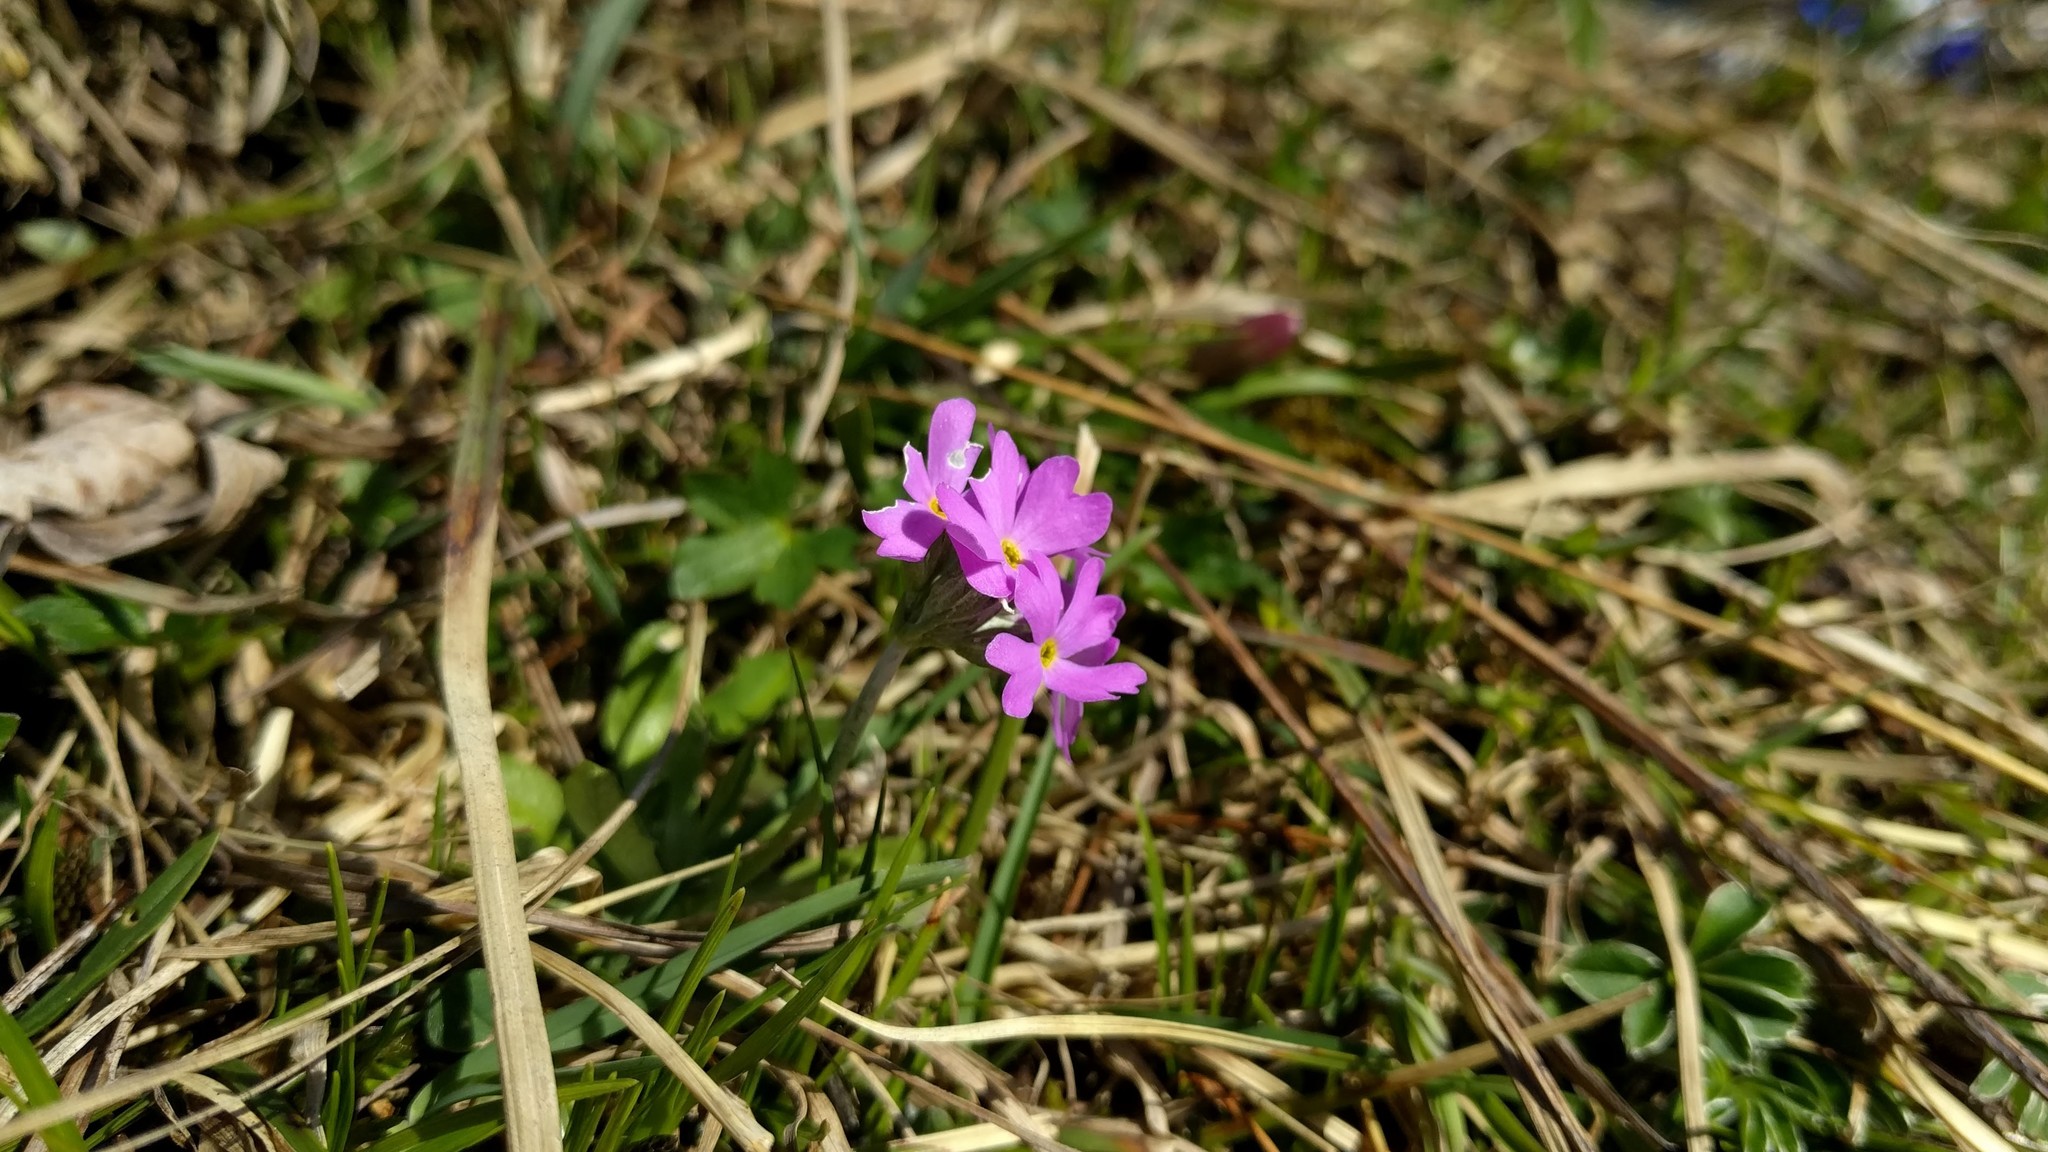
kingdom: Plantae
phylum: Tracheophyta
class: Magnoliopsida
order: Ericales
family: Primulaceae
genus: Primula
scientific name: Primula farinosa
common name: Bird's-eye primrose
